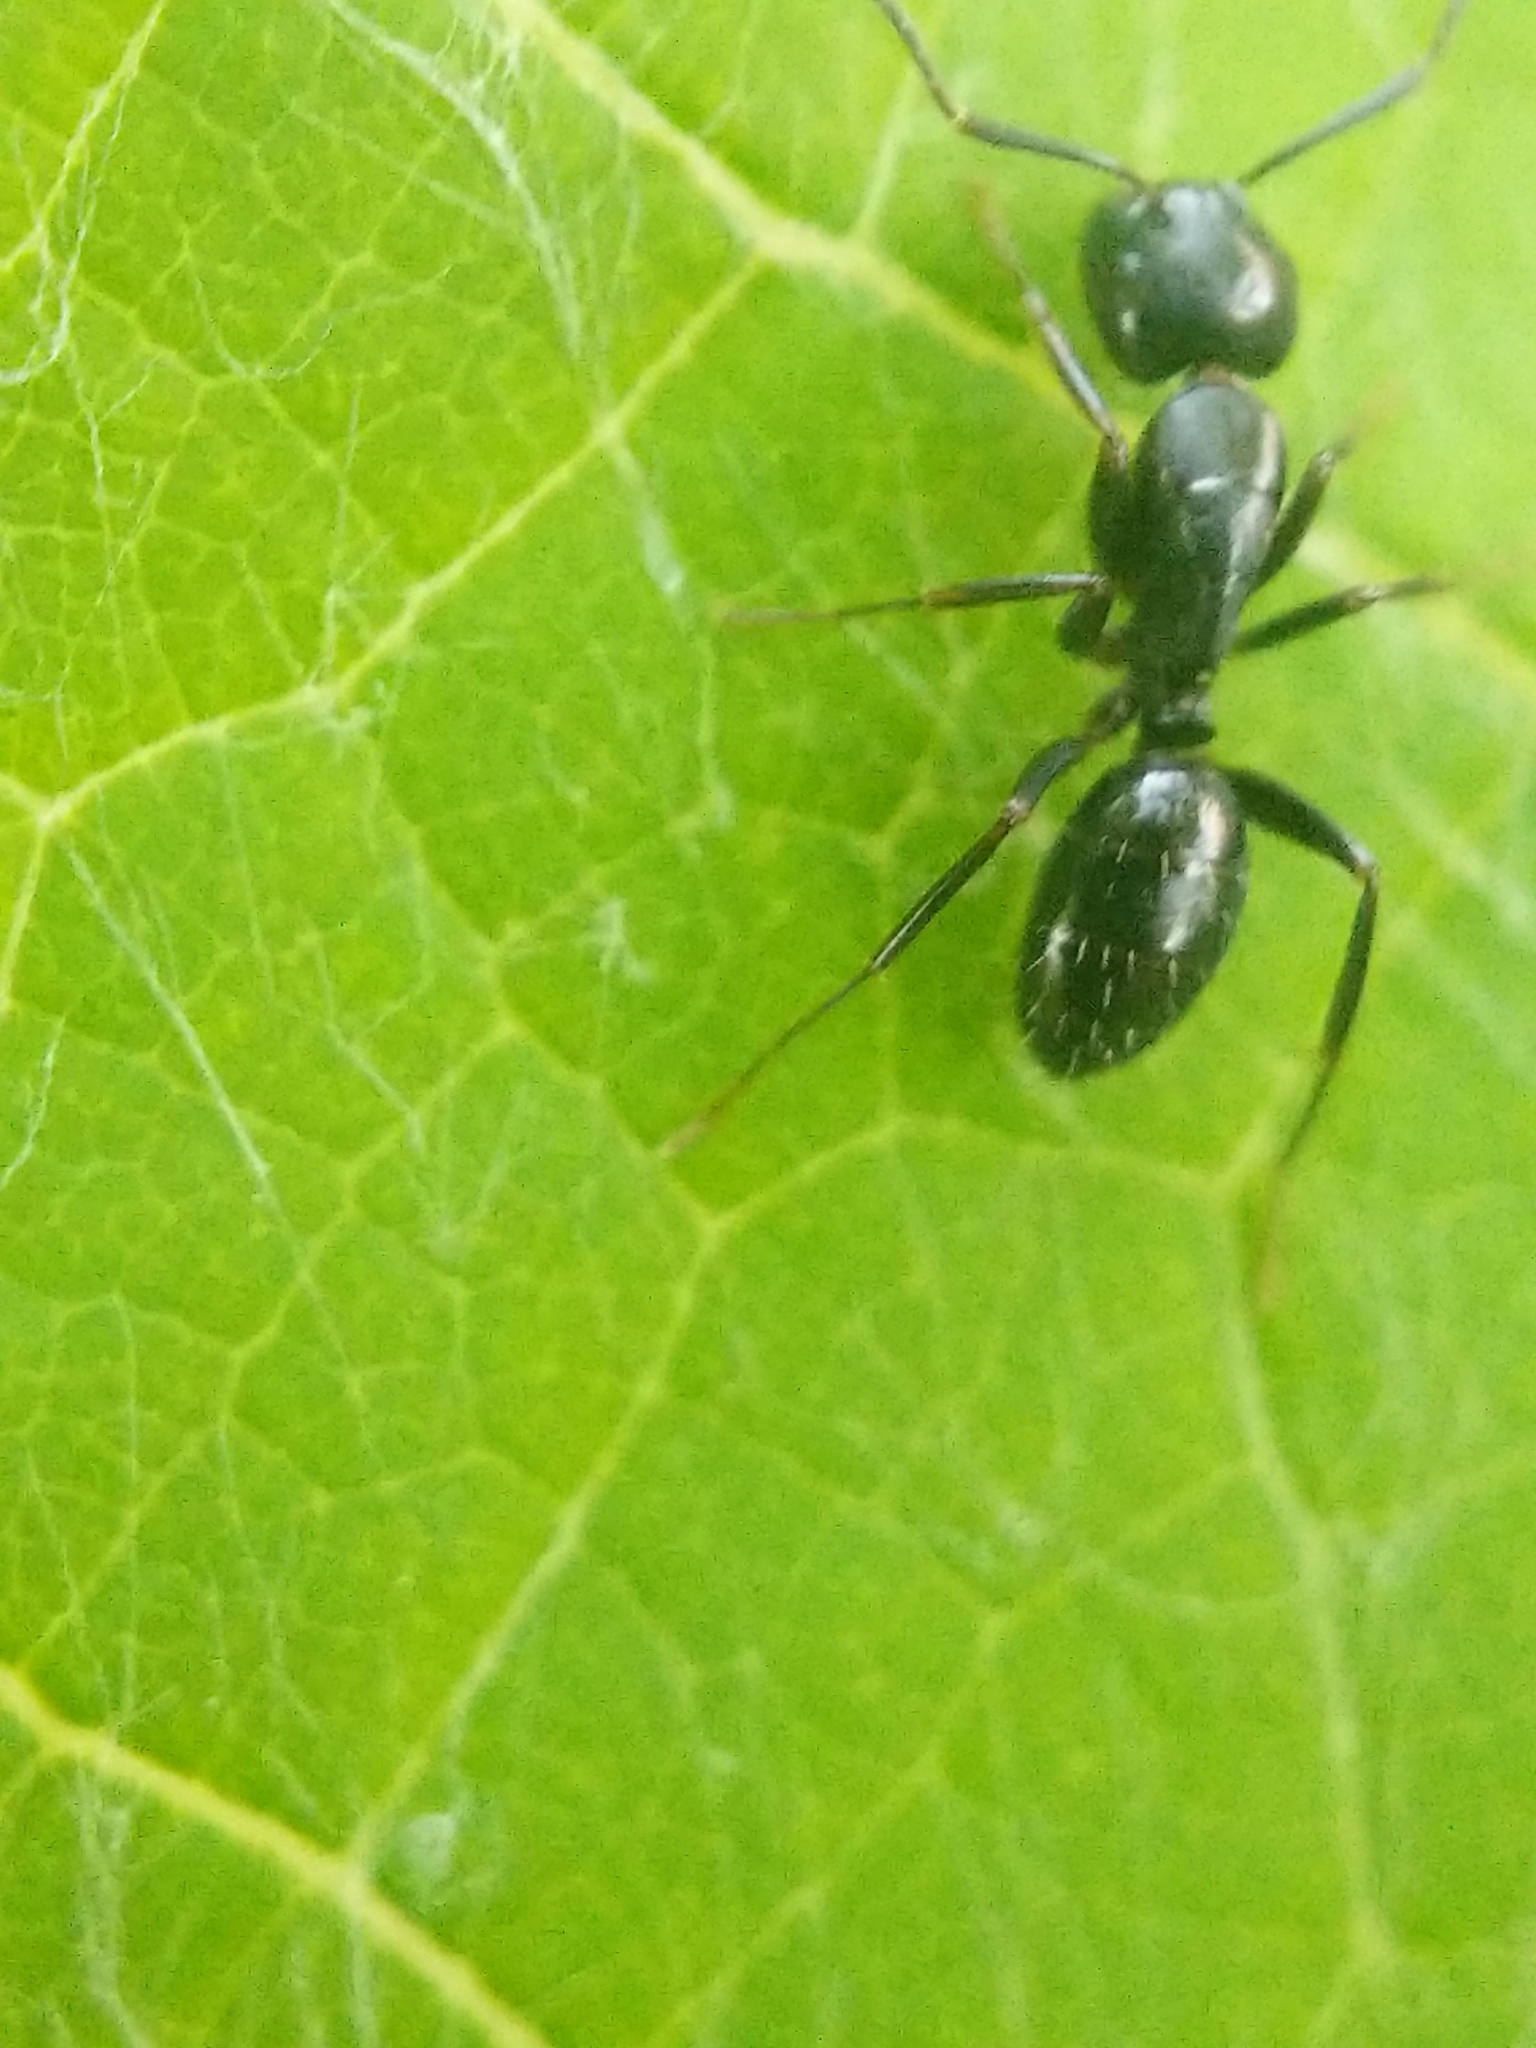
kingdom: Animalia
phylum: Arthropoda
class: Insecta
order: Hymenoptera
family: Formicidae
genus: Myrmentoma
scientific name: Myrmentoma
